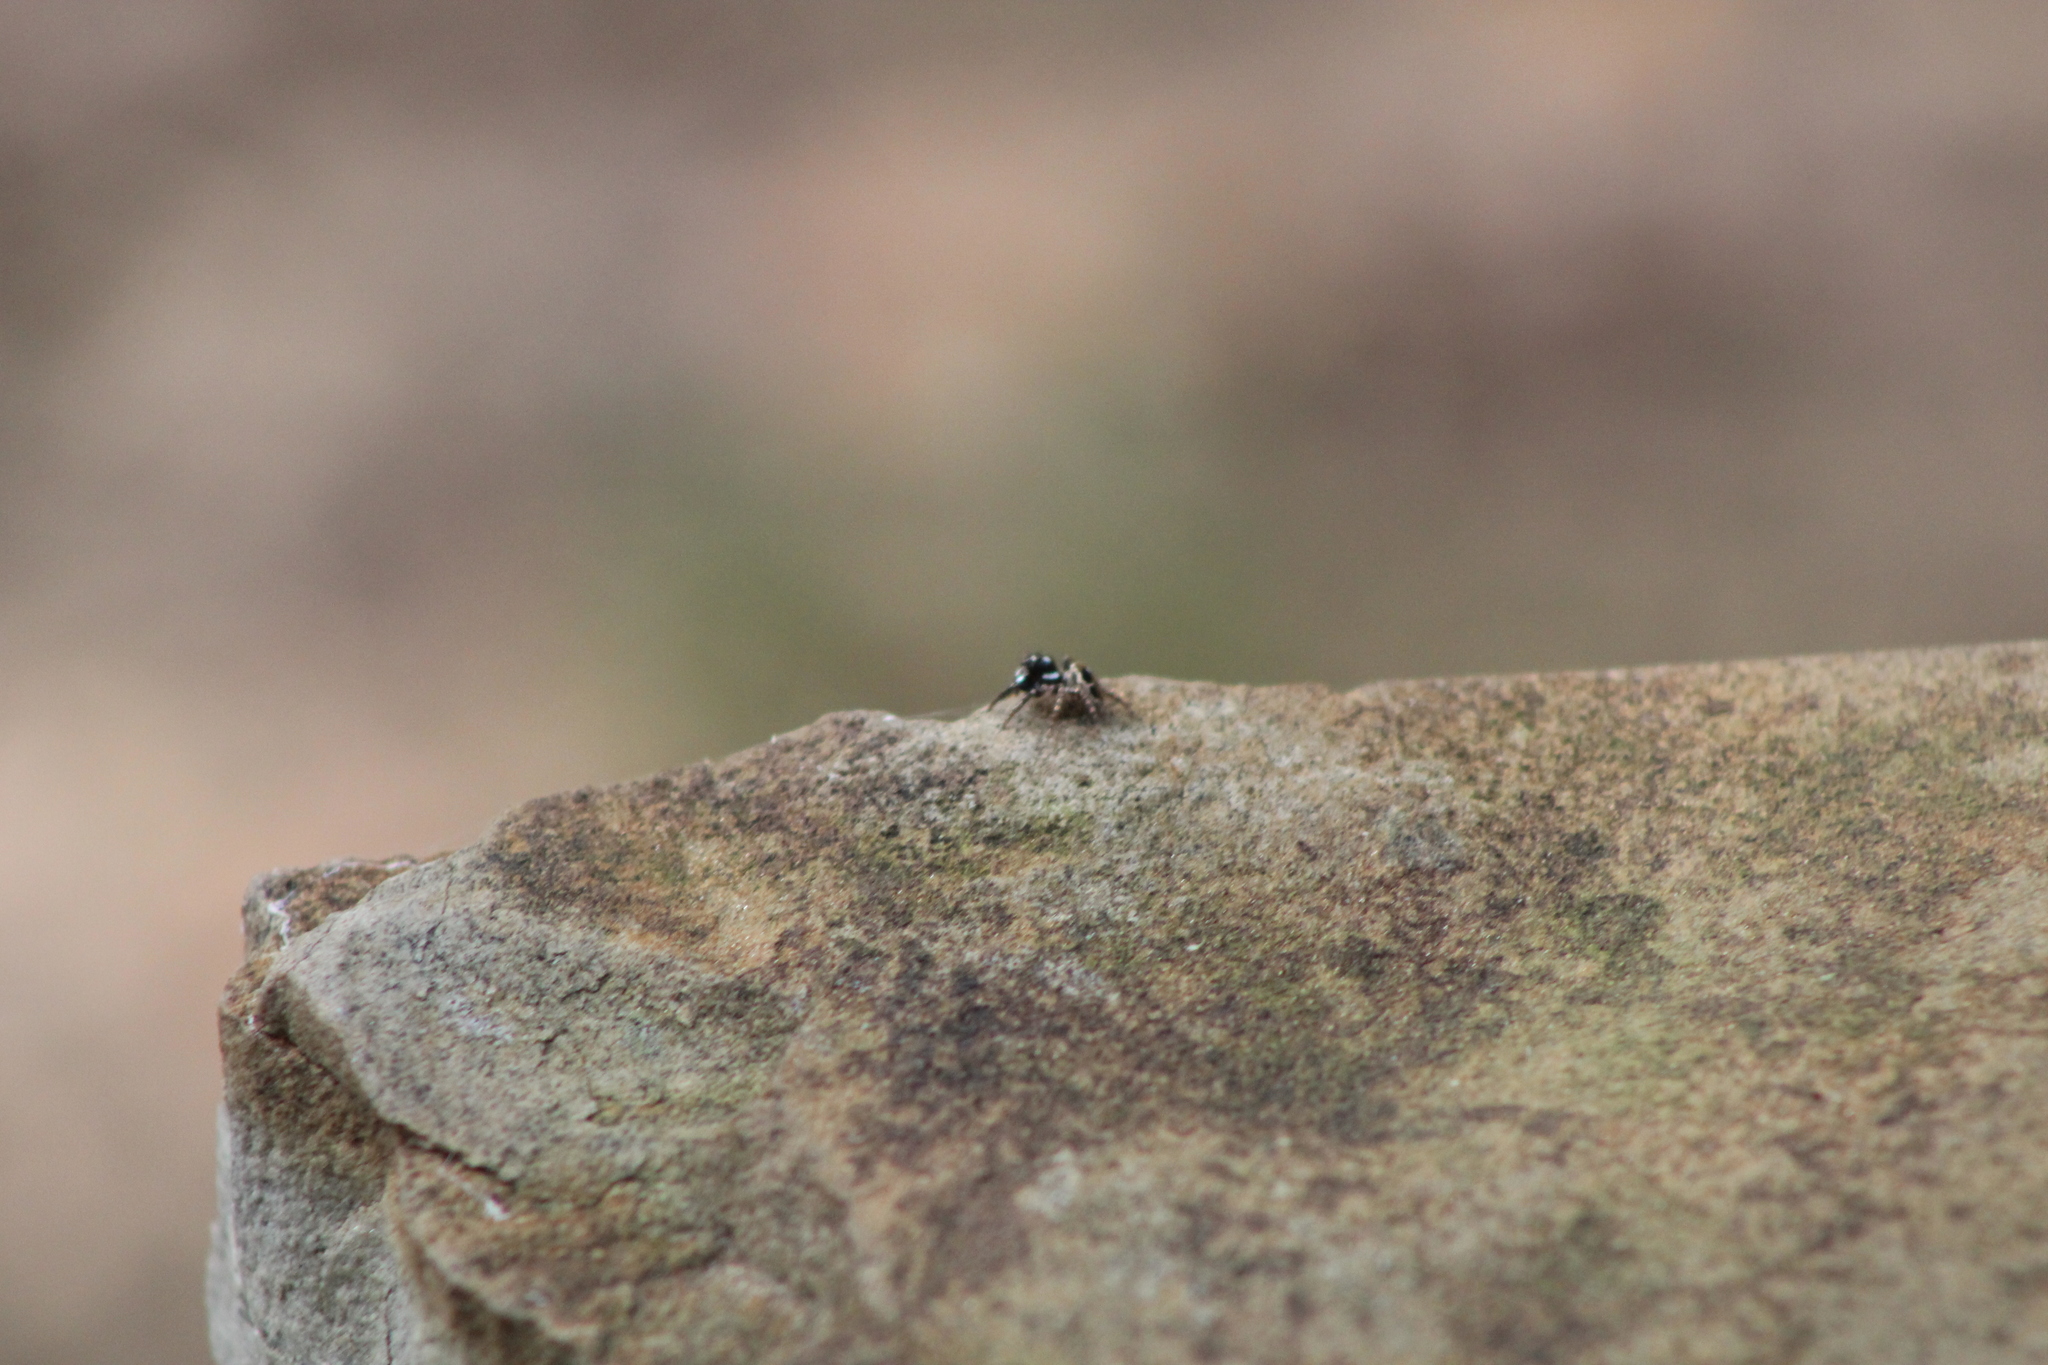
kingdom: Animalia
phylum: Arthropoda
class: Arachnida
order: Araneae
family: Salticidae
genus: Anasaitis
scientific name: Anasaitis canosa
